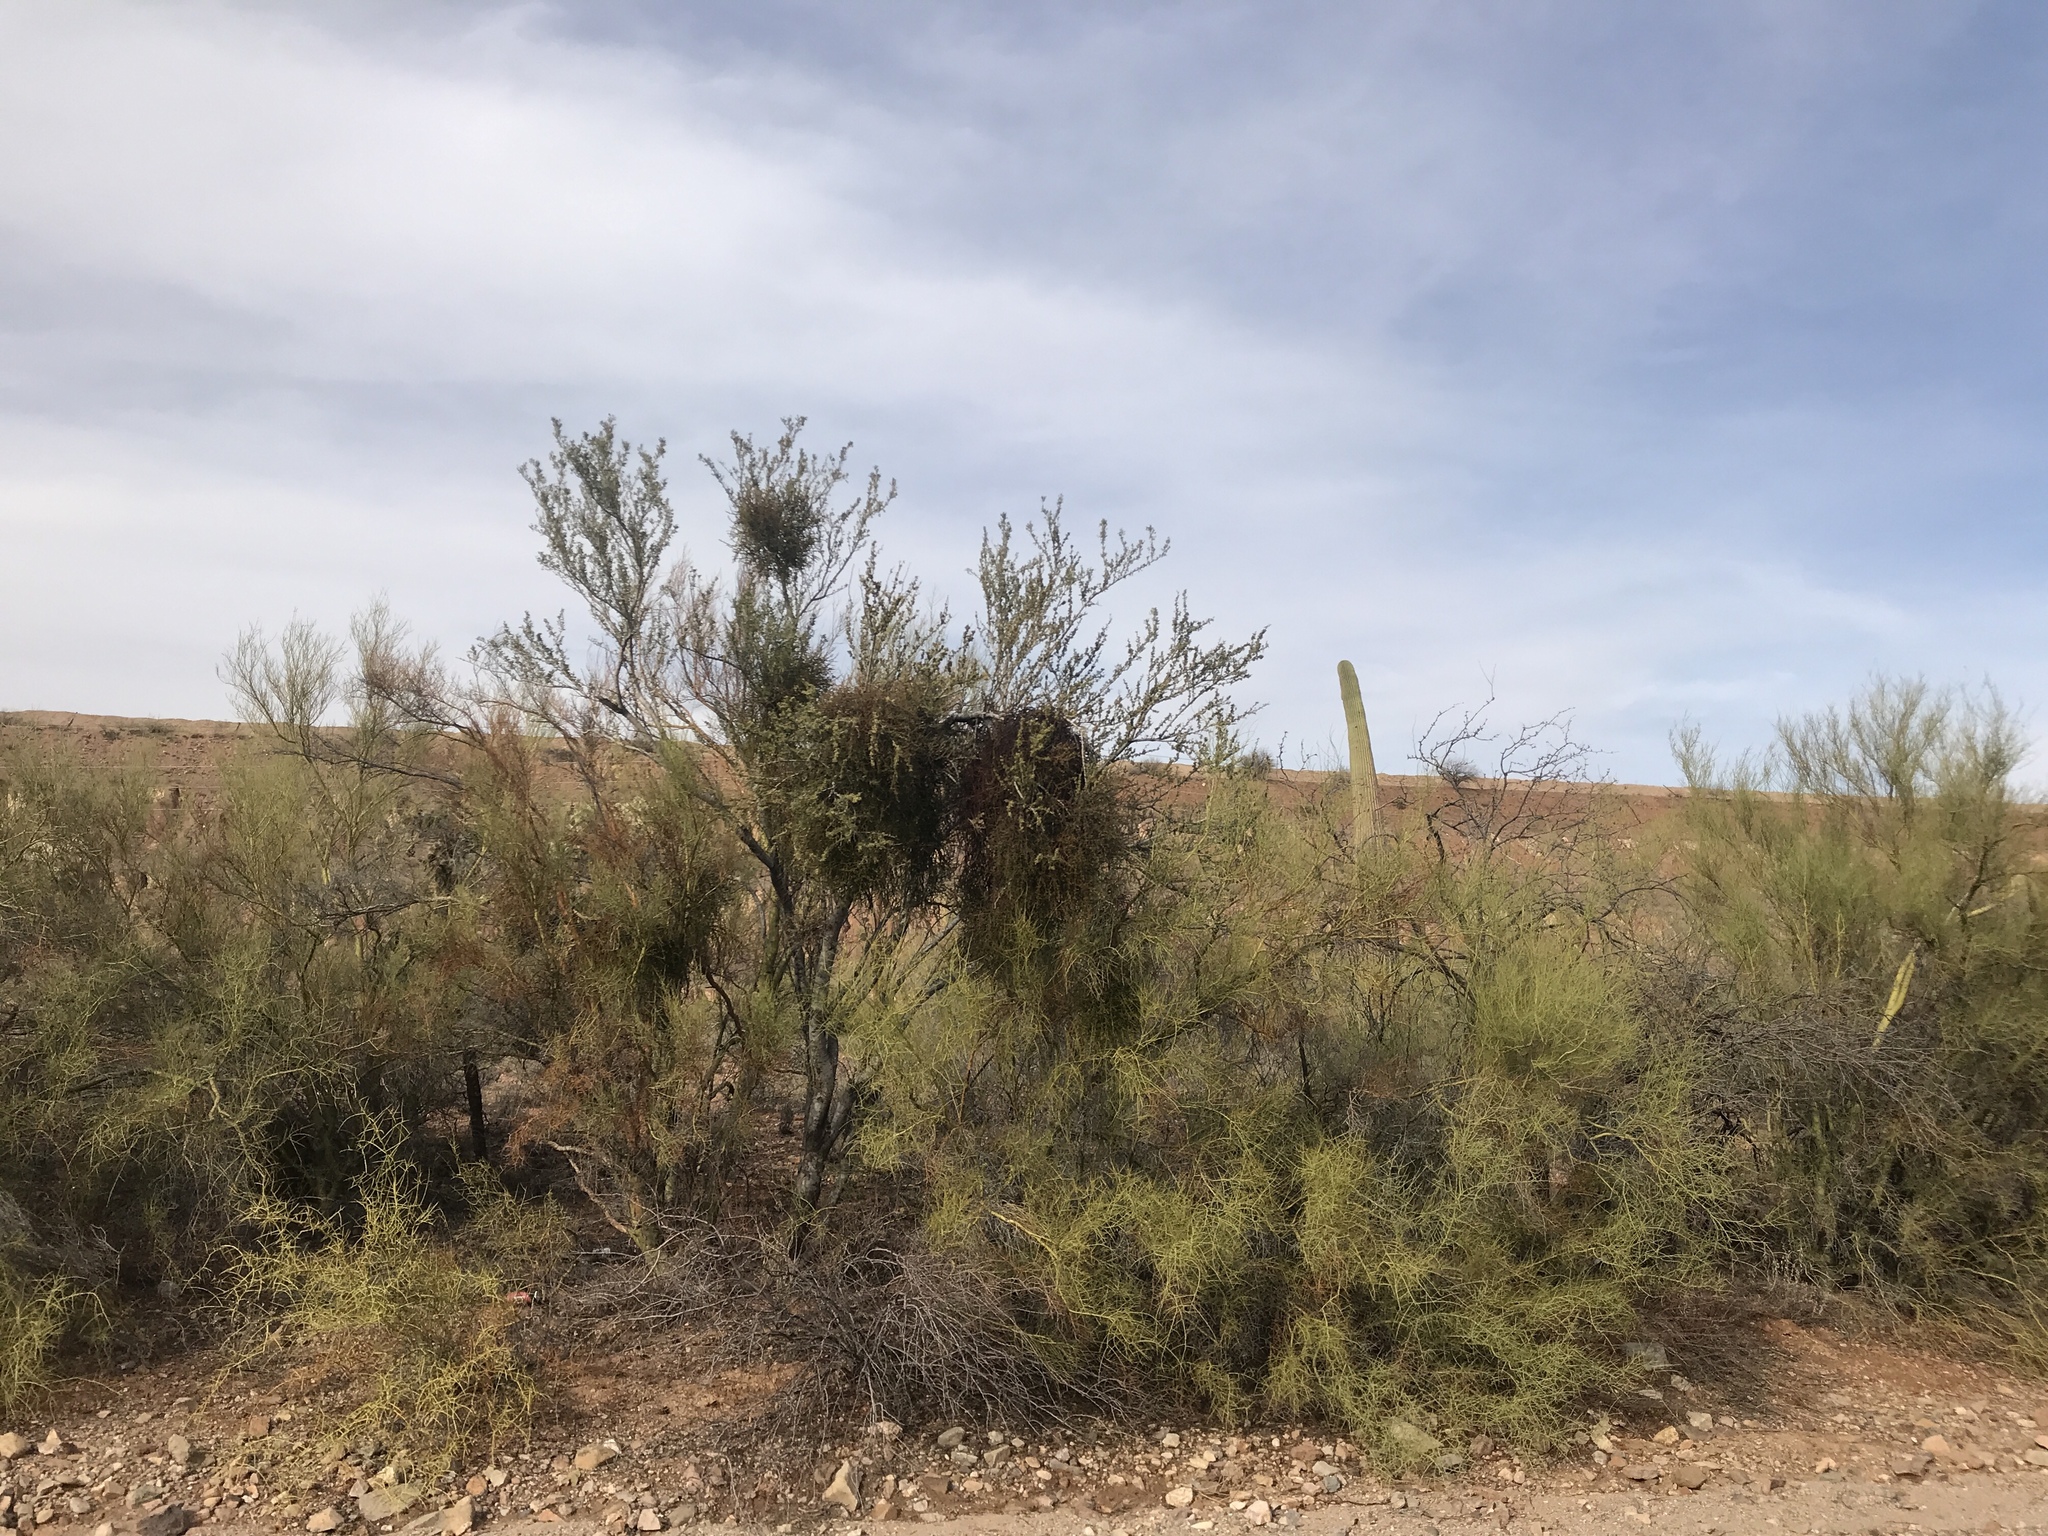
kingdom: Plantae
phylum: Tracheophyta
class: Magnoliopsida
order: Santalales
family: Viscaceae
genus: Phoradendron
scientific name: Phoradendron californicum
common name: Acacia mistletoe
